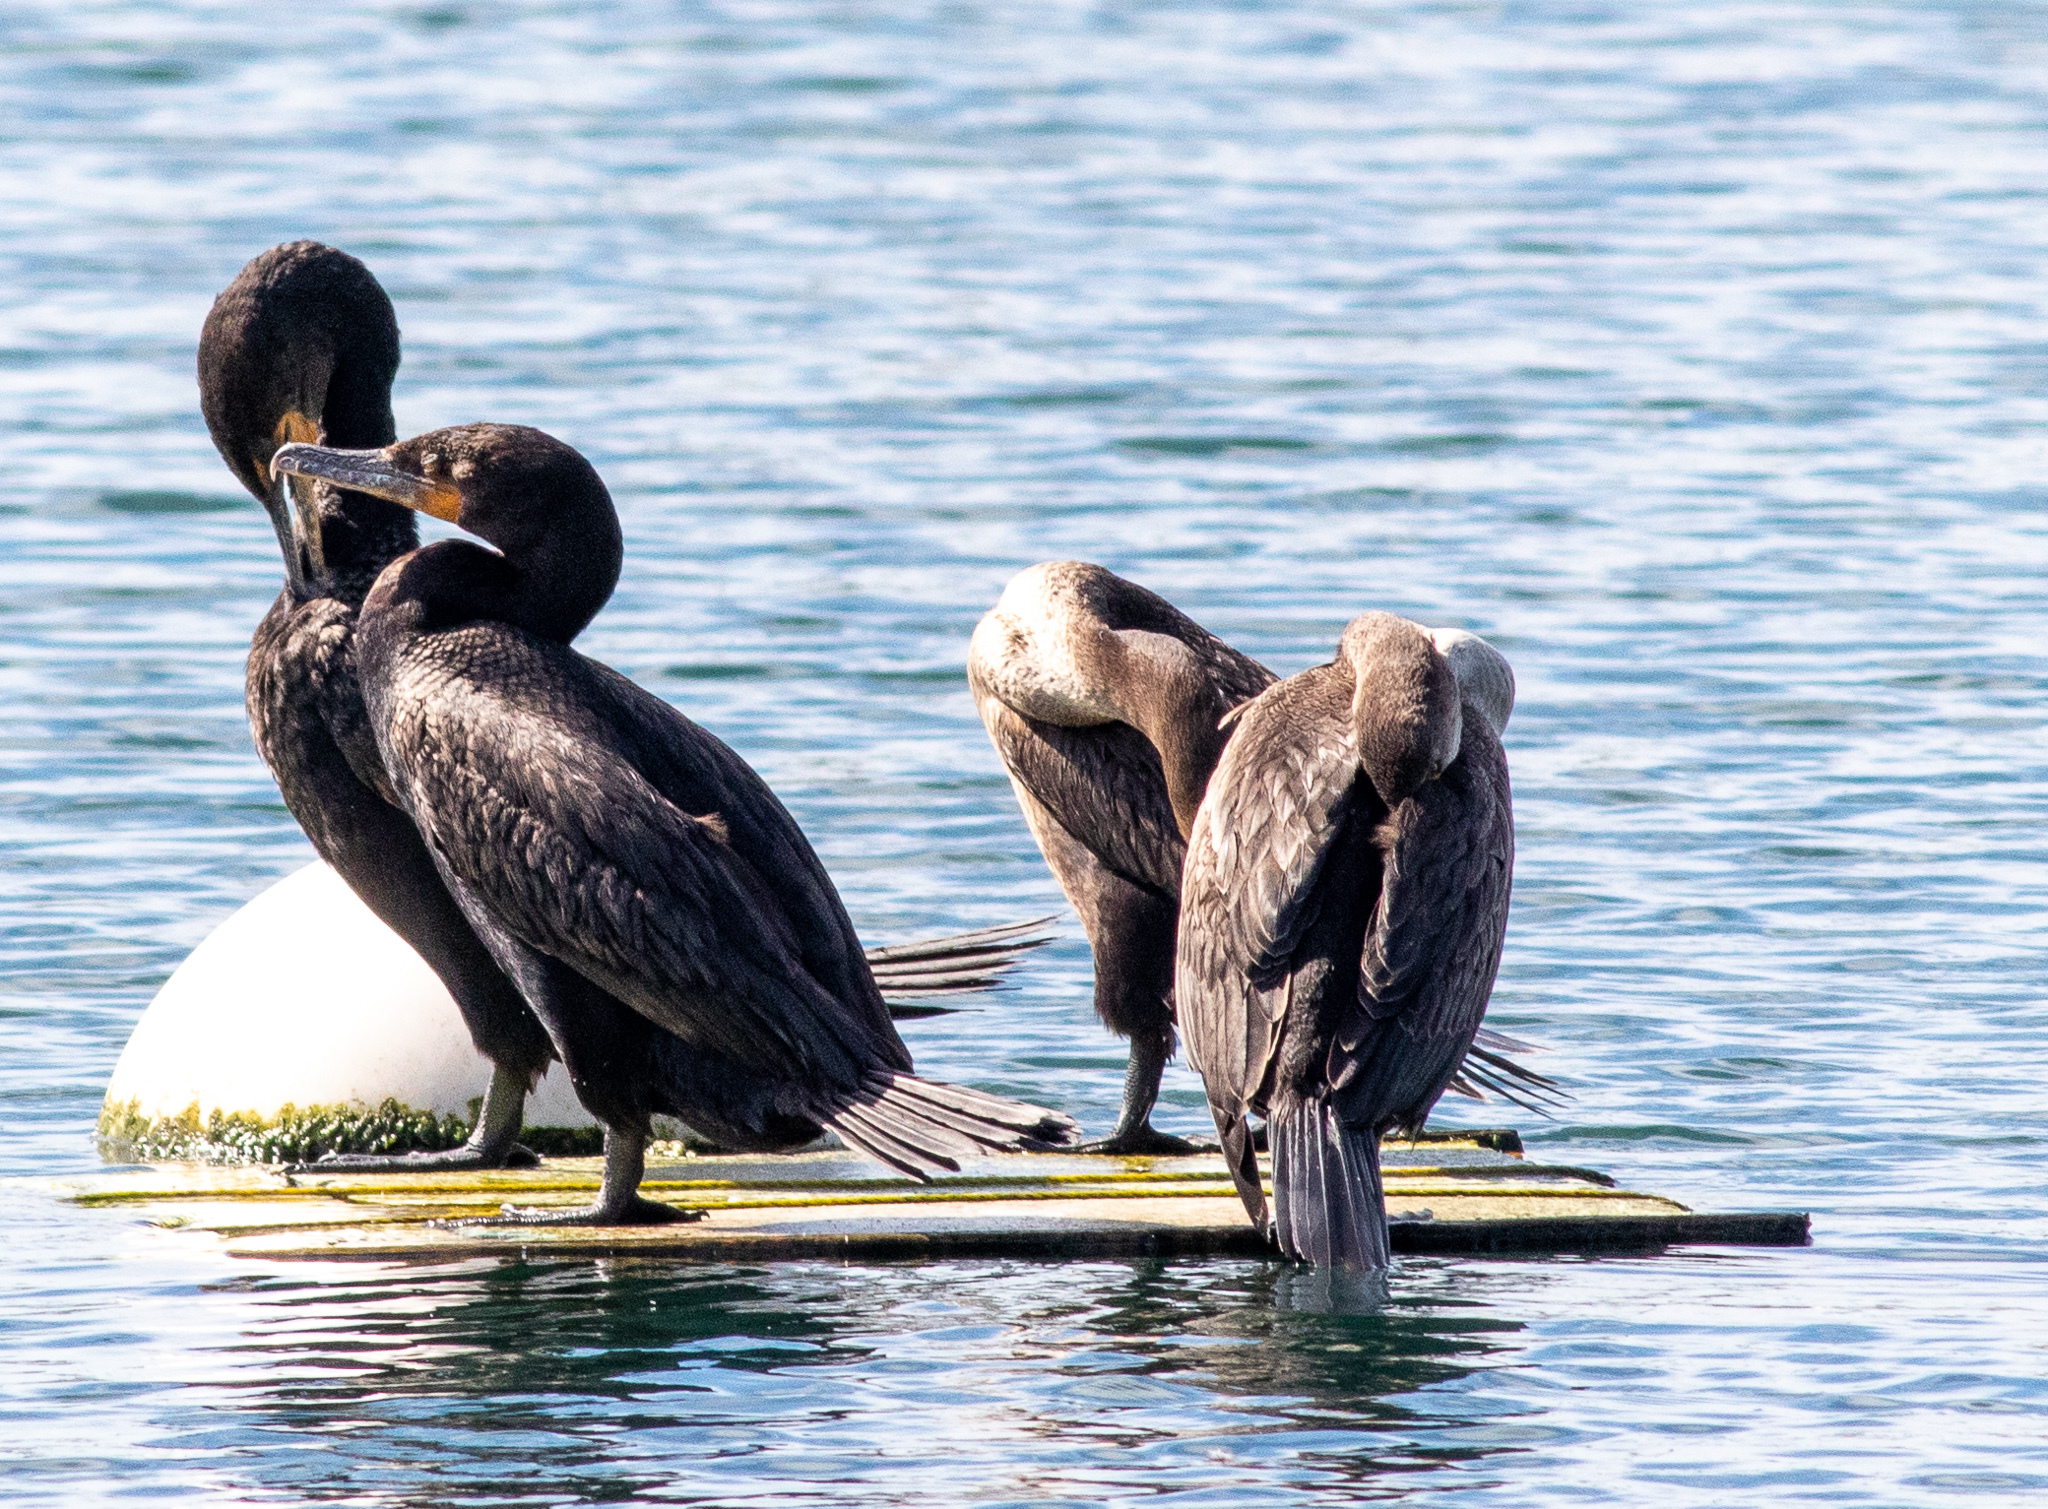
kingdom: Animalia
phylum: Chordata
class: Aves
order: Suliformes
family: Phalacrocoracidae
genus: Phalacrocorax
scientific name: Phalacrocorax auritus
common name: Double-crested cormorant
